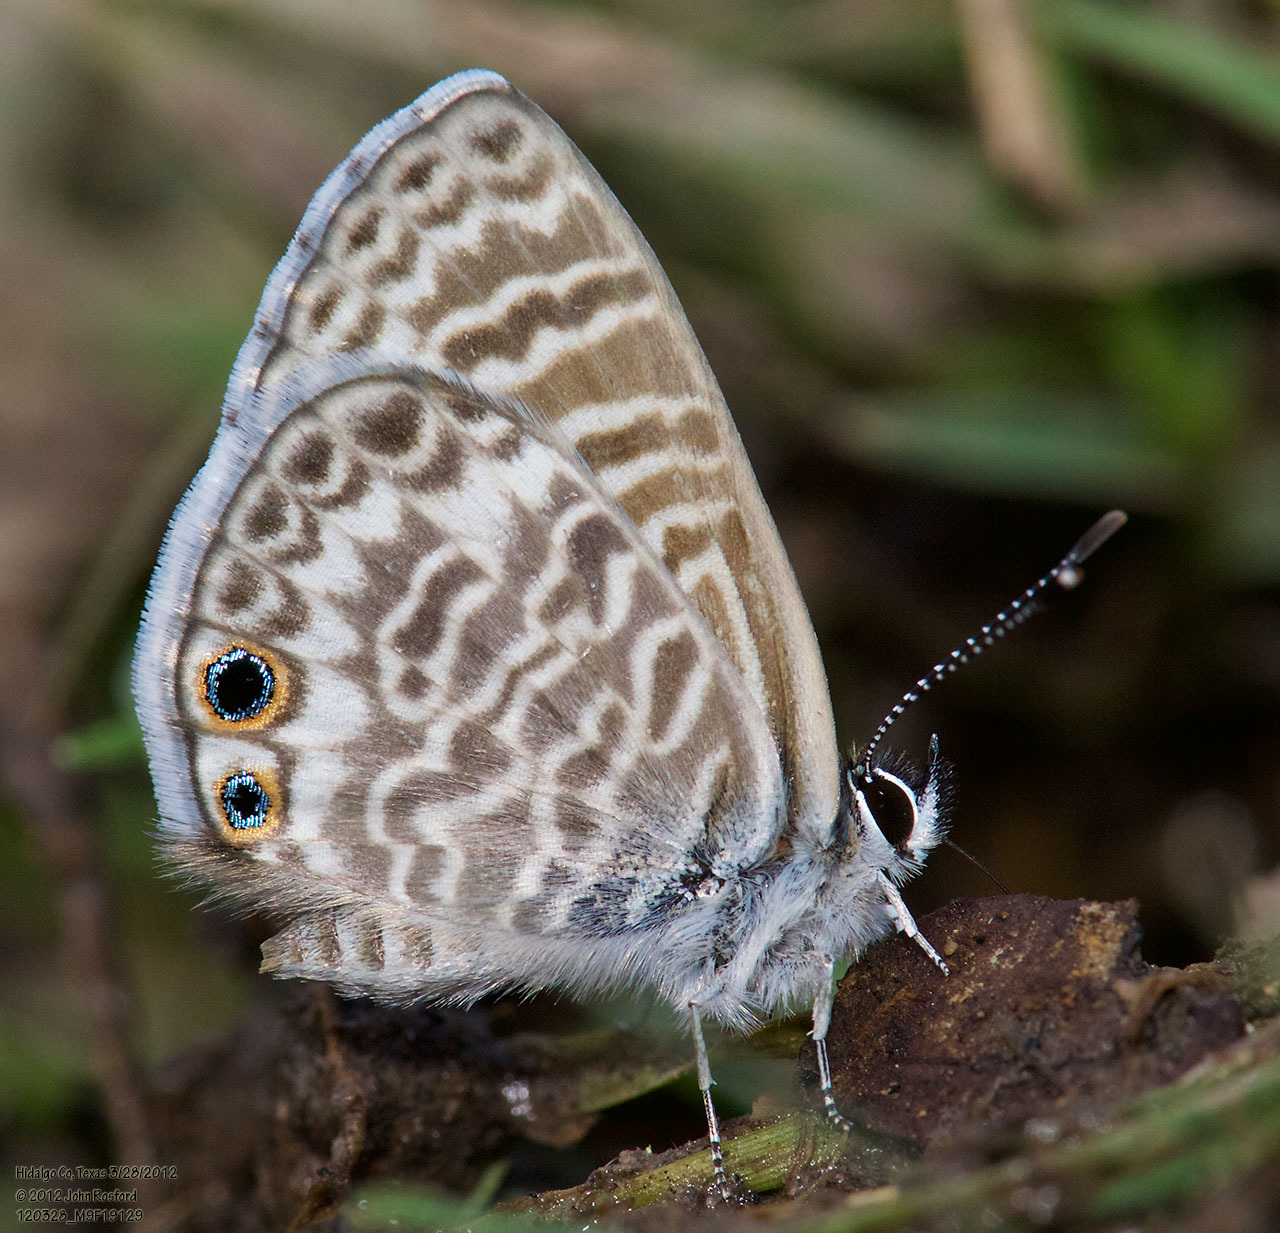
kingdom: Animalia
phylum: Arthropoda
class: Insecta
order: Lepidoptera
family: Lycaenidae
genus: Leptotes
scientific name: Leptotes marina
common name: Marine blue
